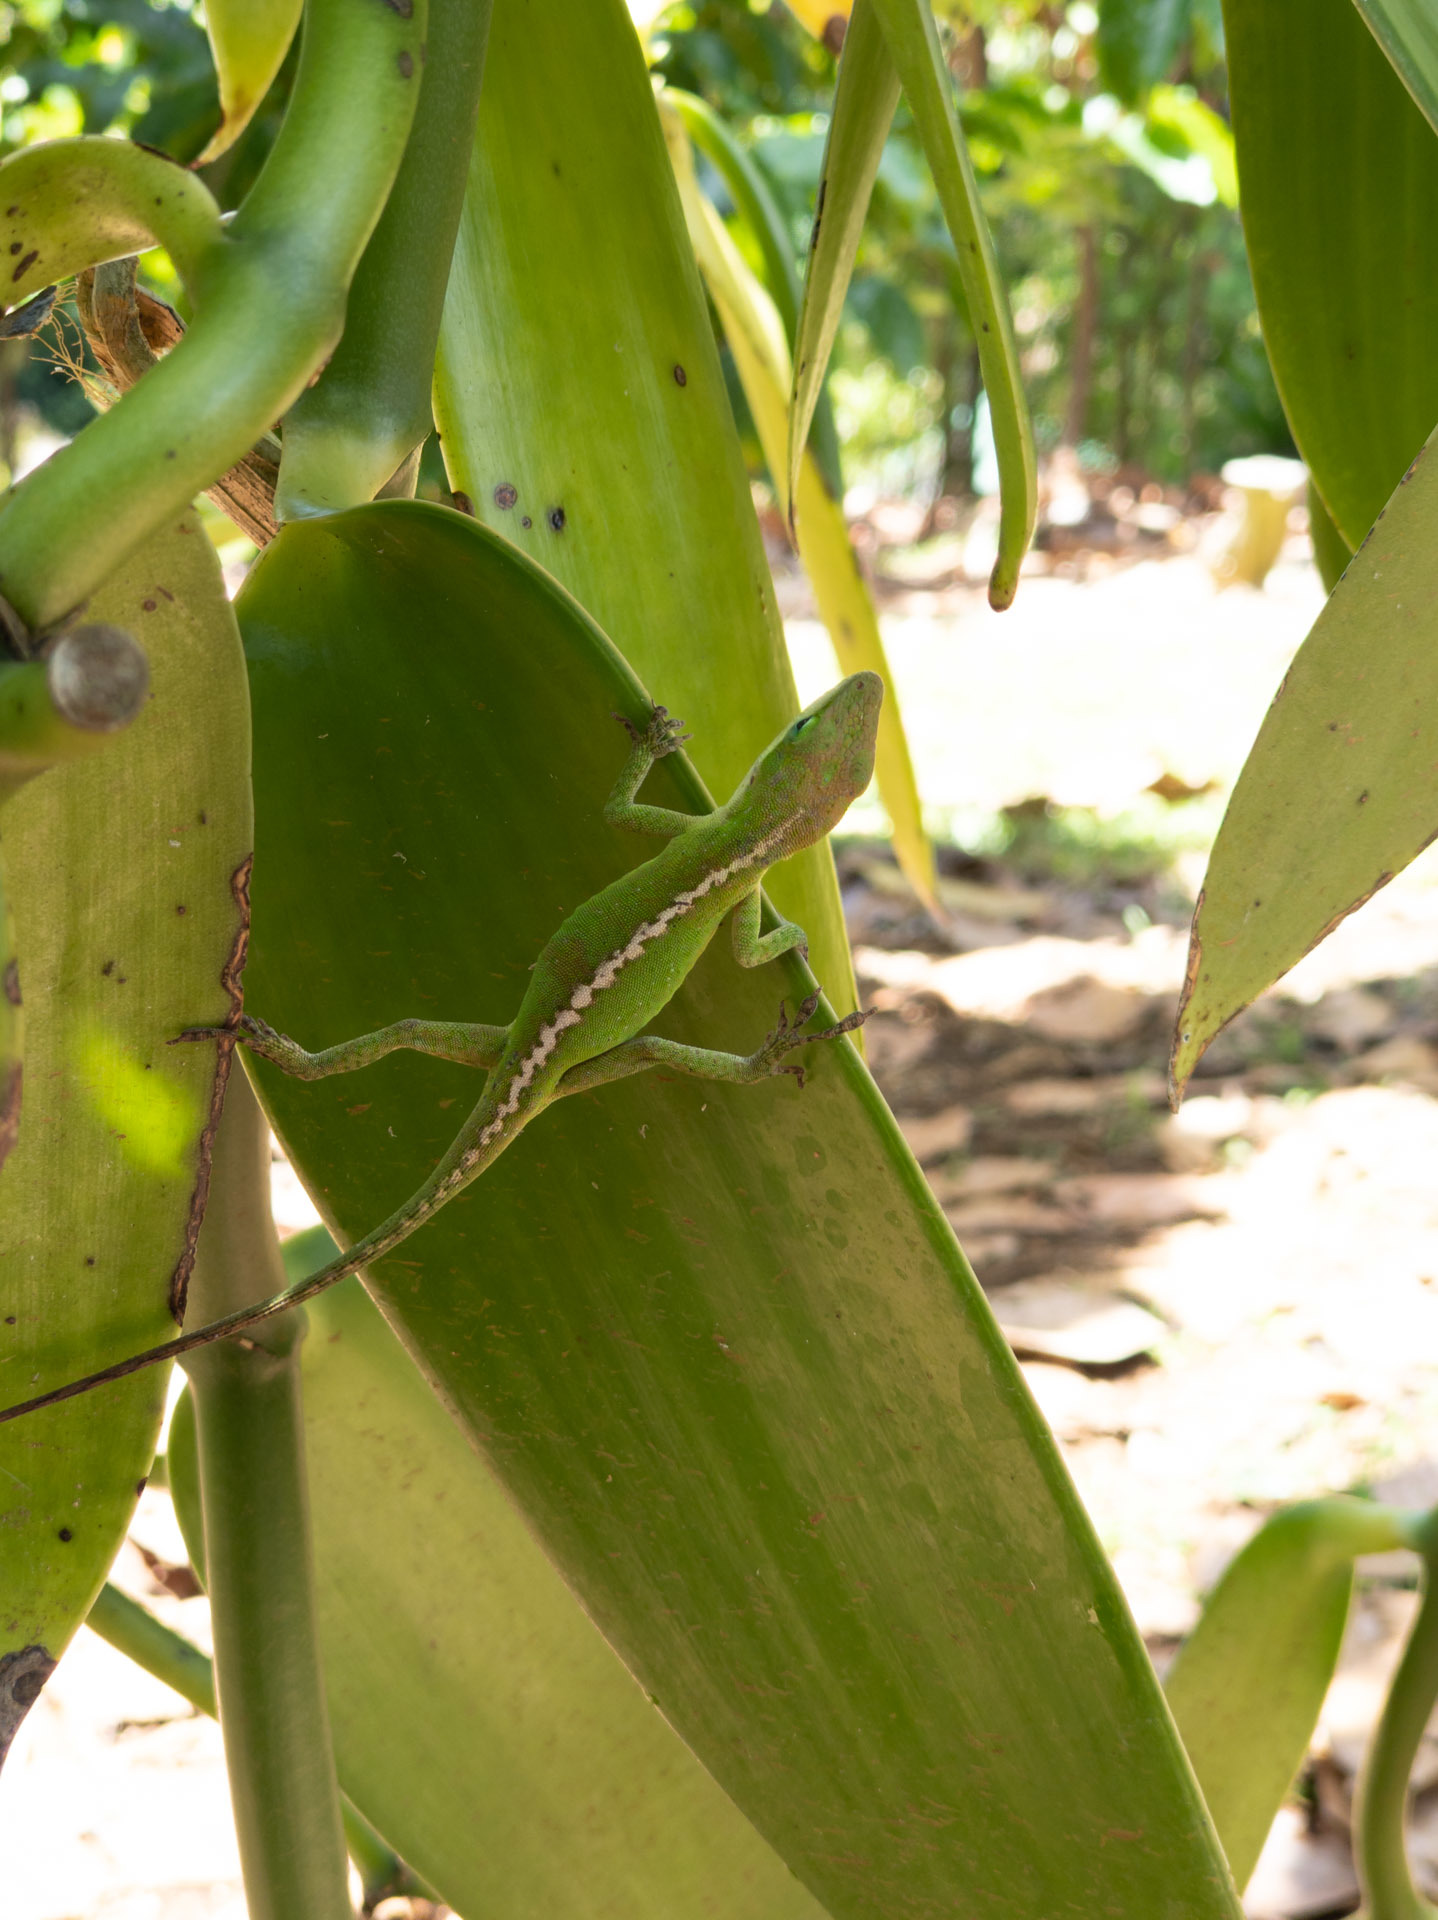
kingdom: Animalia
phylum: Chordata
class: Squamata
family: Dactyloidae
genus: Anolis
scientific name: Anolis carolinensis
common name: Green anole
